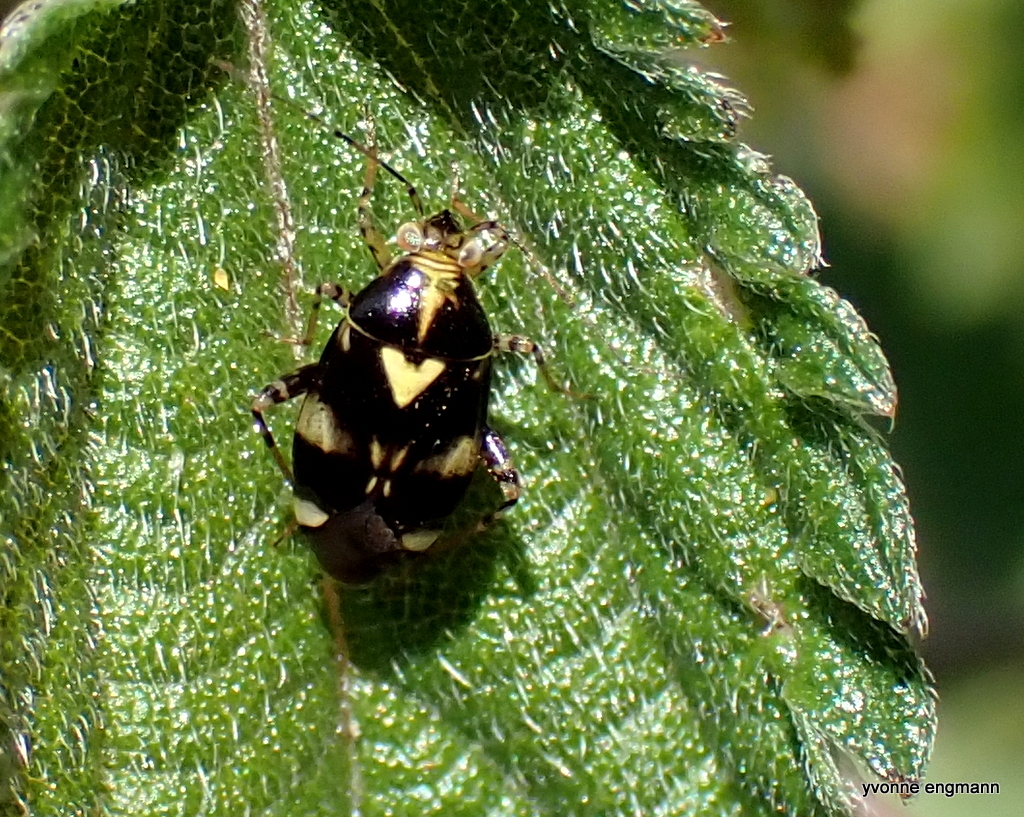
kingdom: Animalia
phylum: Arthropoda
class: Insecta
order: Hemiptera
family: Miridae
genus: Liocoris
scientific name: Liocoris tripustulatus
